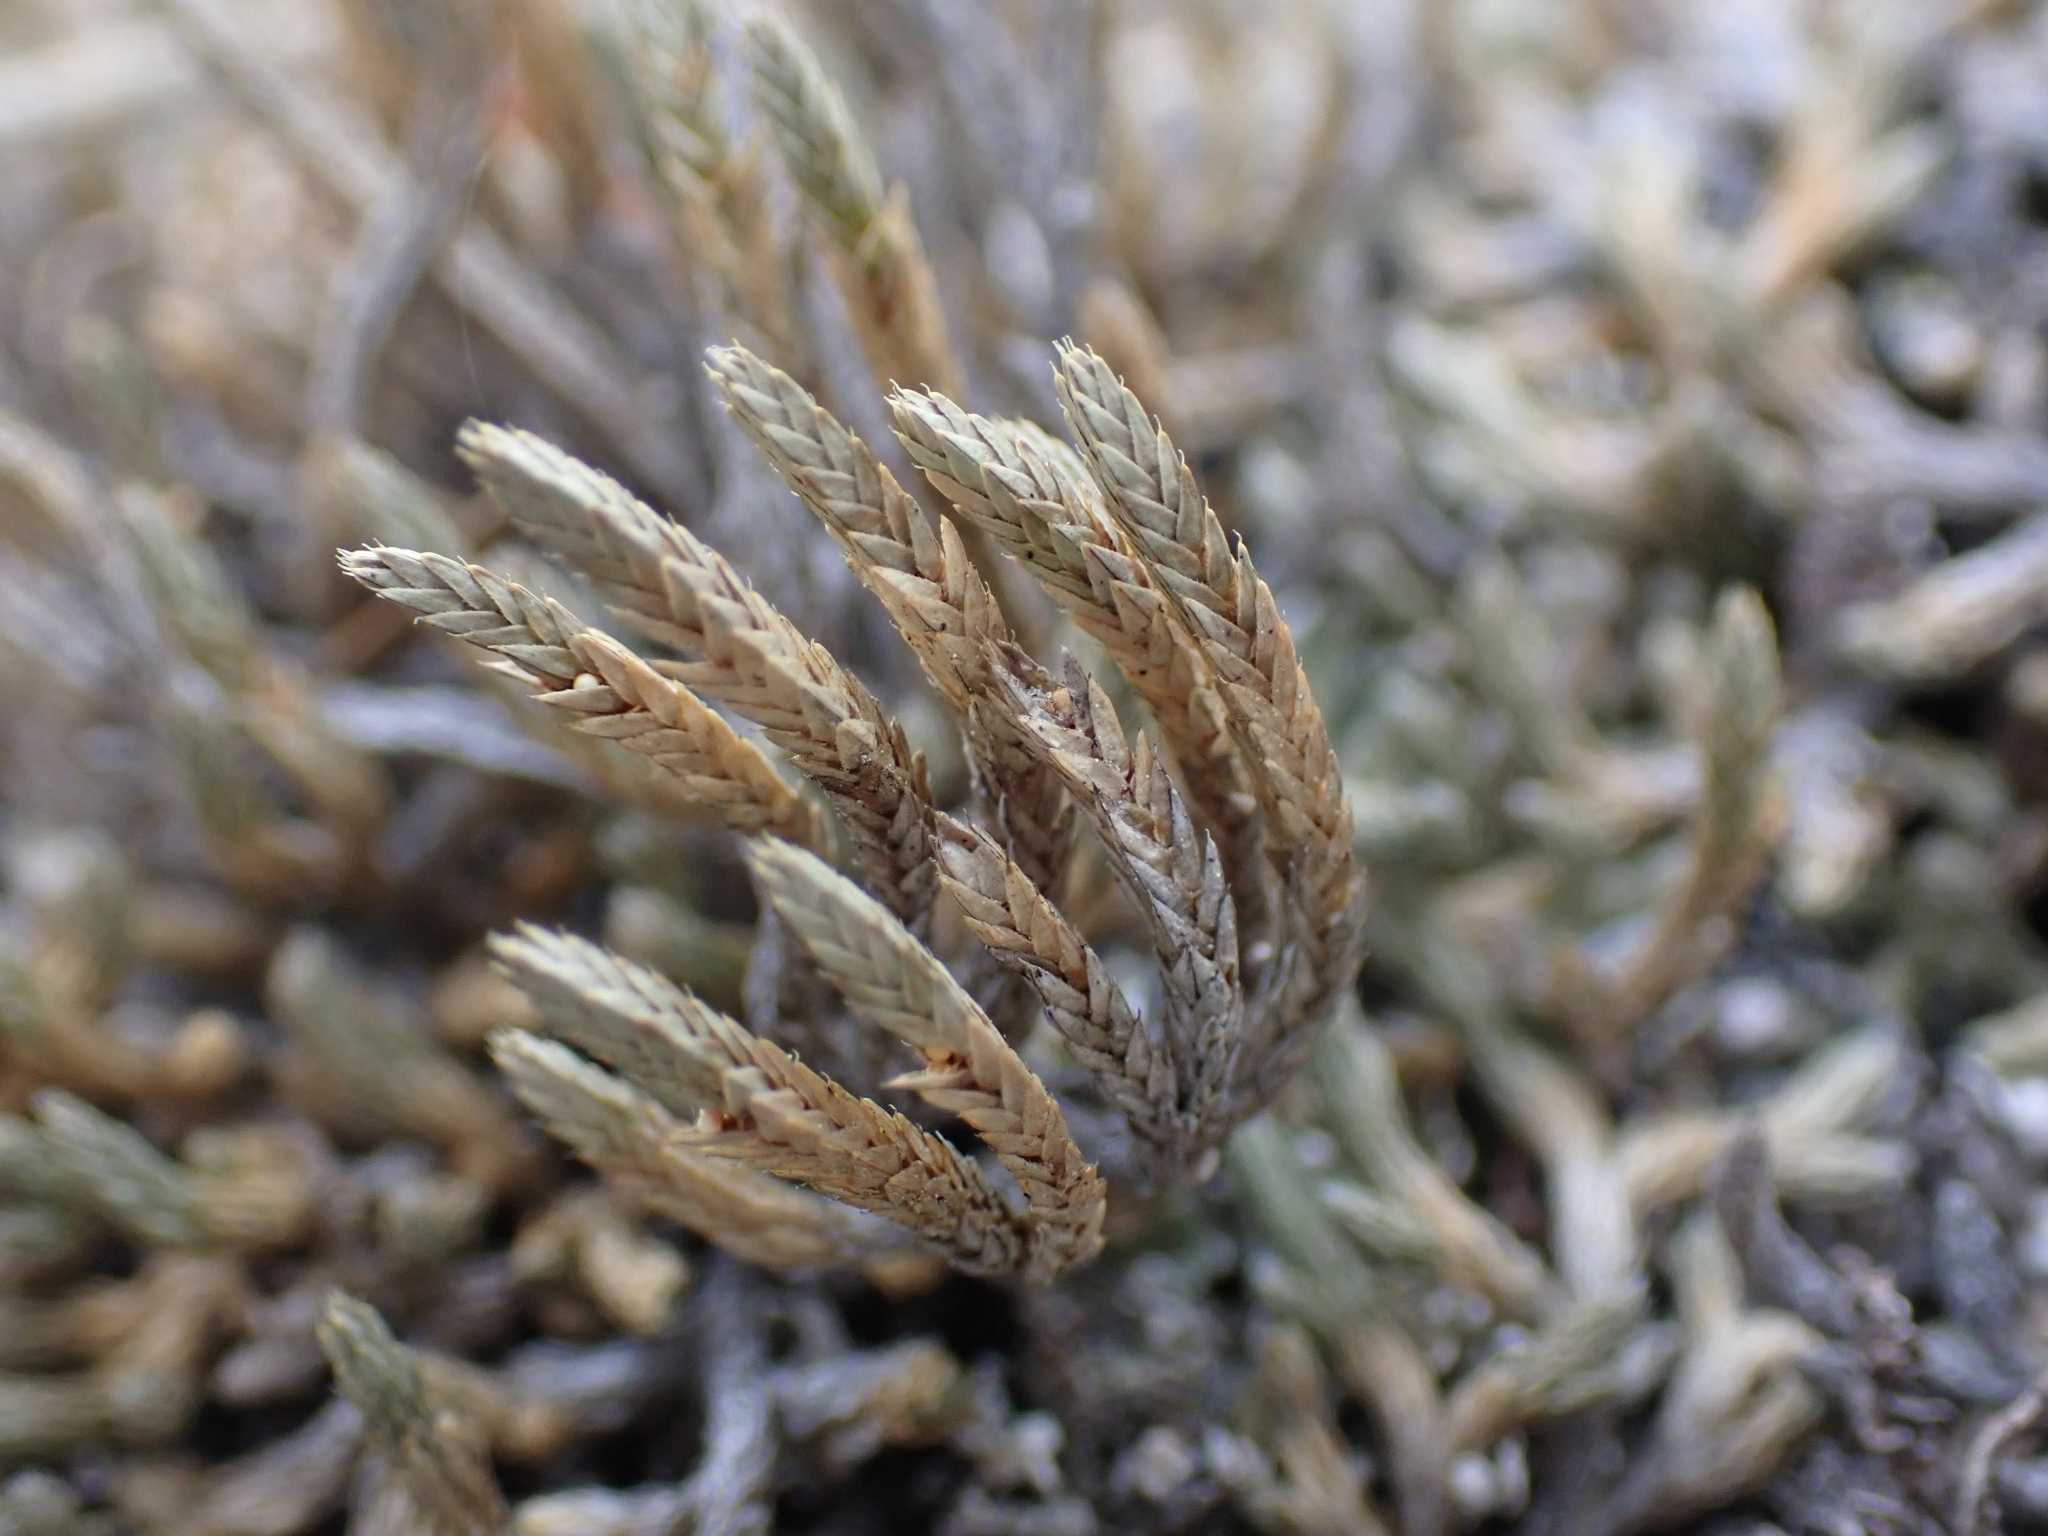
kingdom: Plantae
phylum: Tracheophyta
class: Lycopodiopsida
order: Selaginellales
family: Selaginellaceae
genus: Selaginella
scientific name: Selaginella wallacei
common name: Wallace's selaginella
